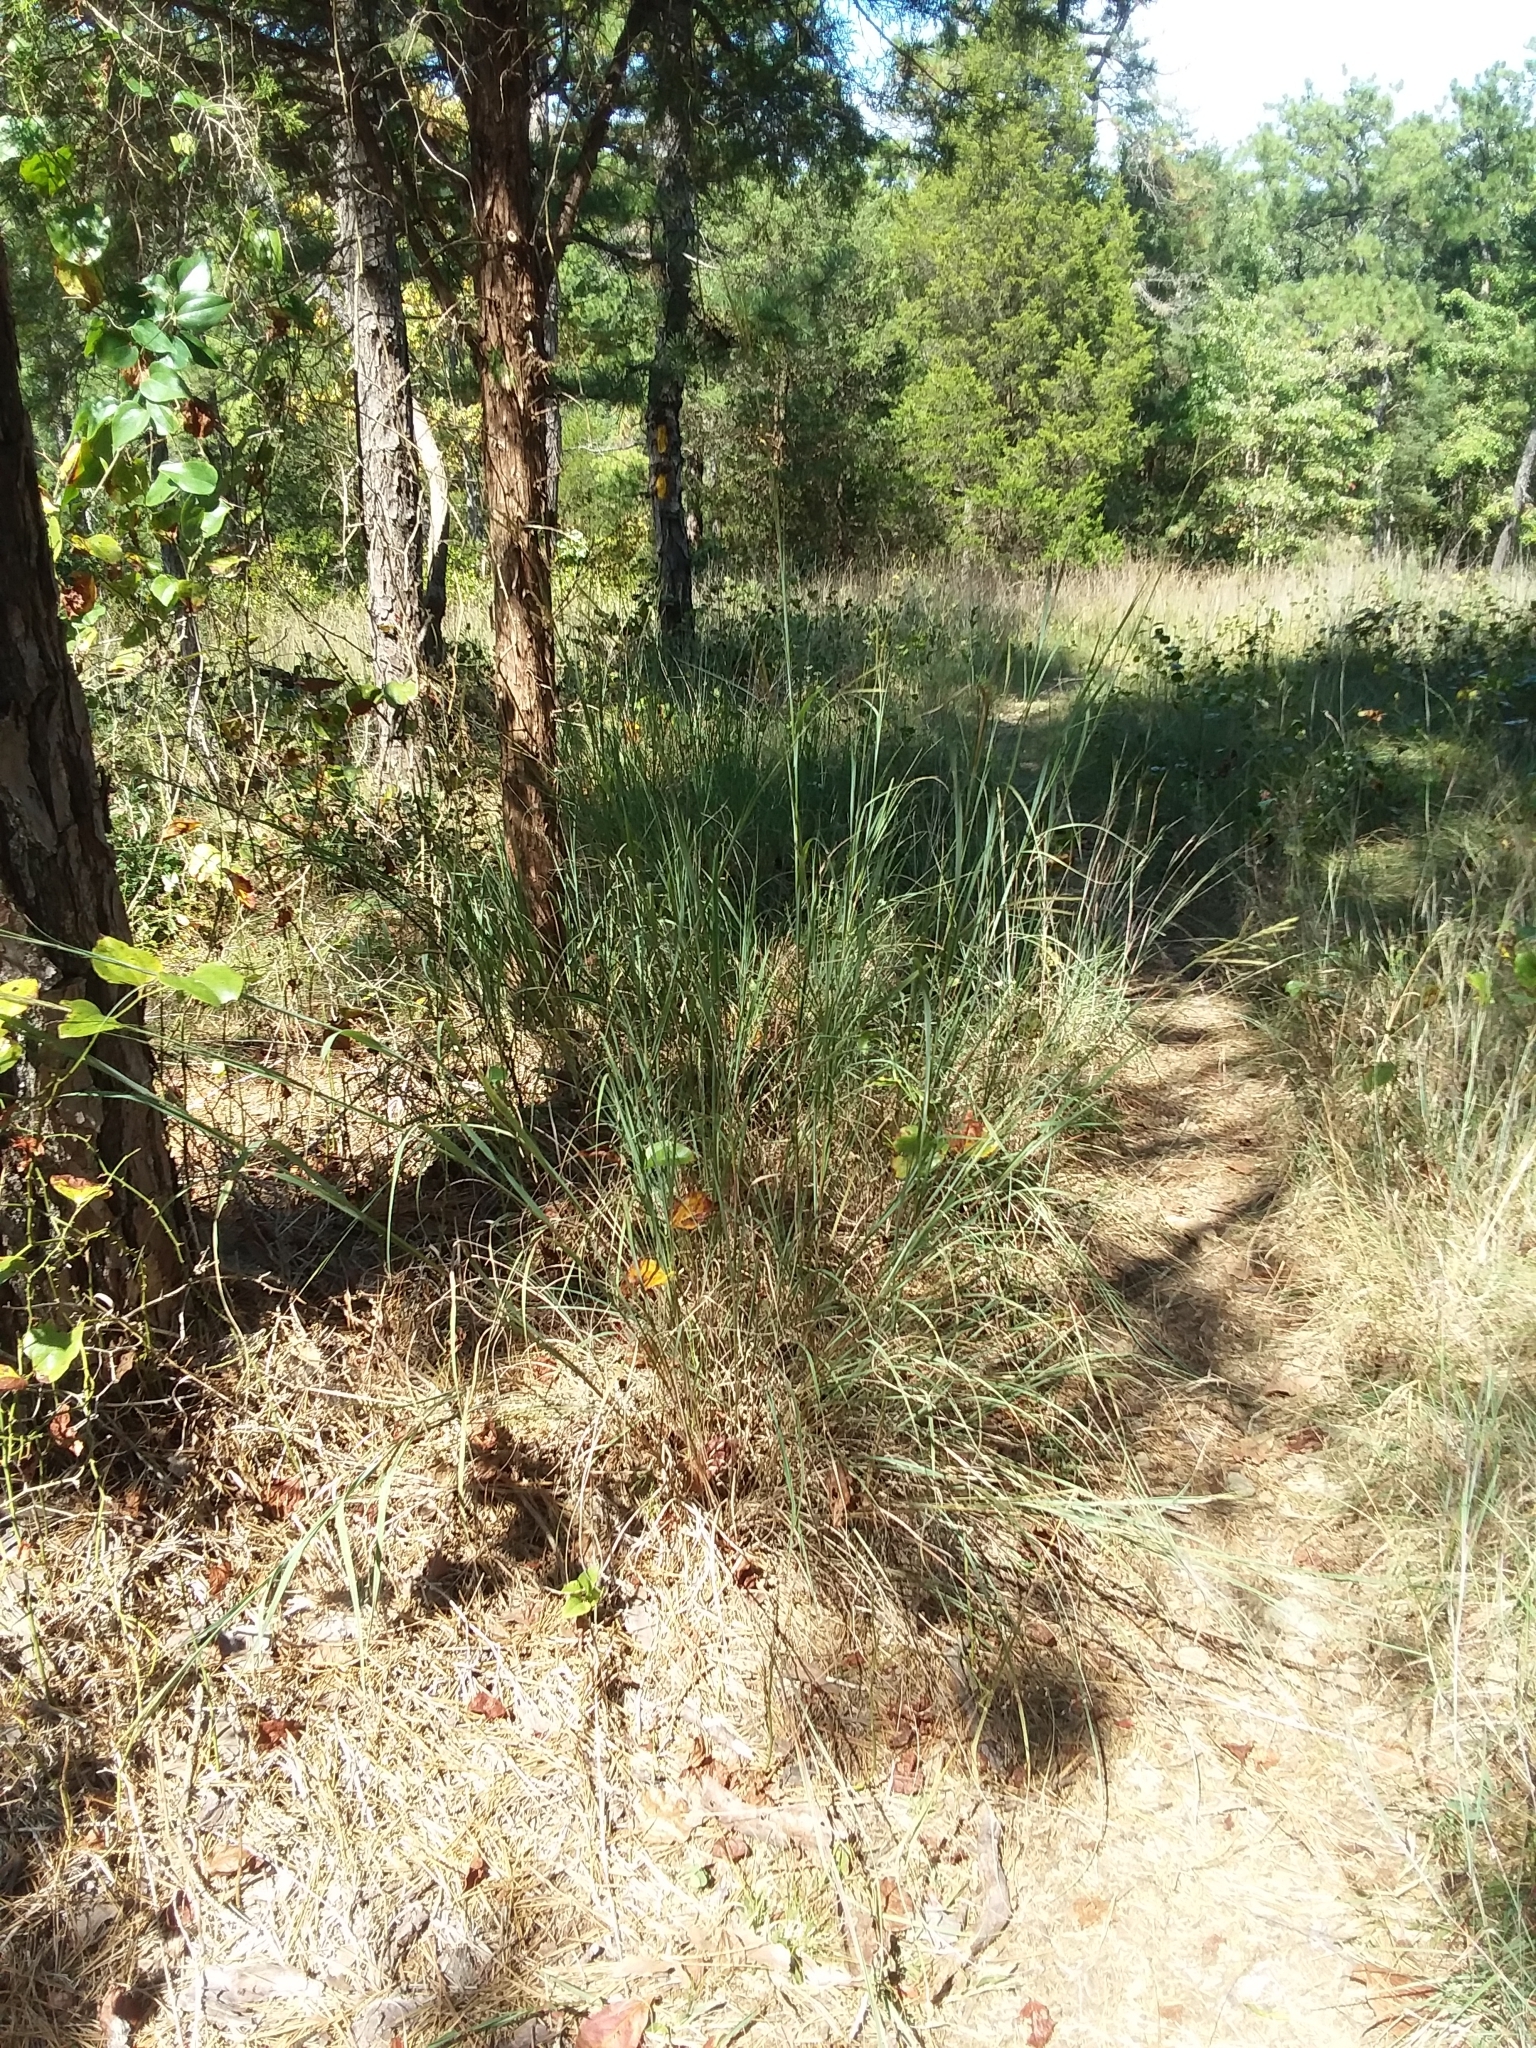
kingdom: Plantae
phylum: Tracheophyta
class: Liliopsida
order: Poales
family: Poaceae
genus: Andropogon
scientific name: Andropogon gerardi
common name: Big bluestem
